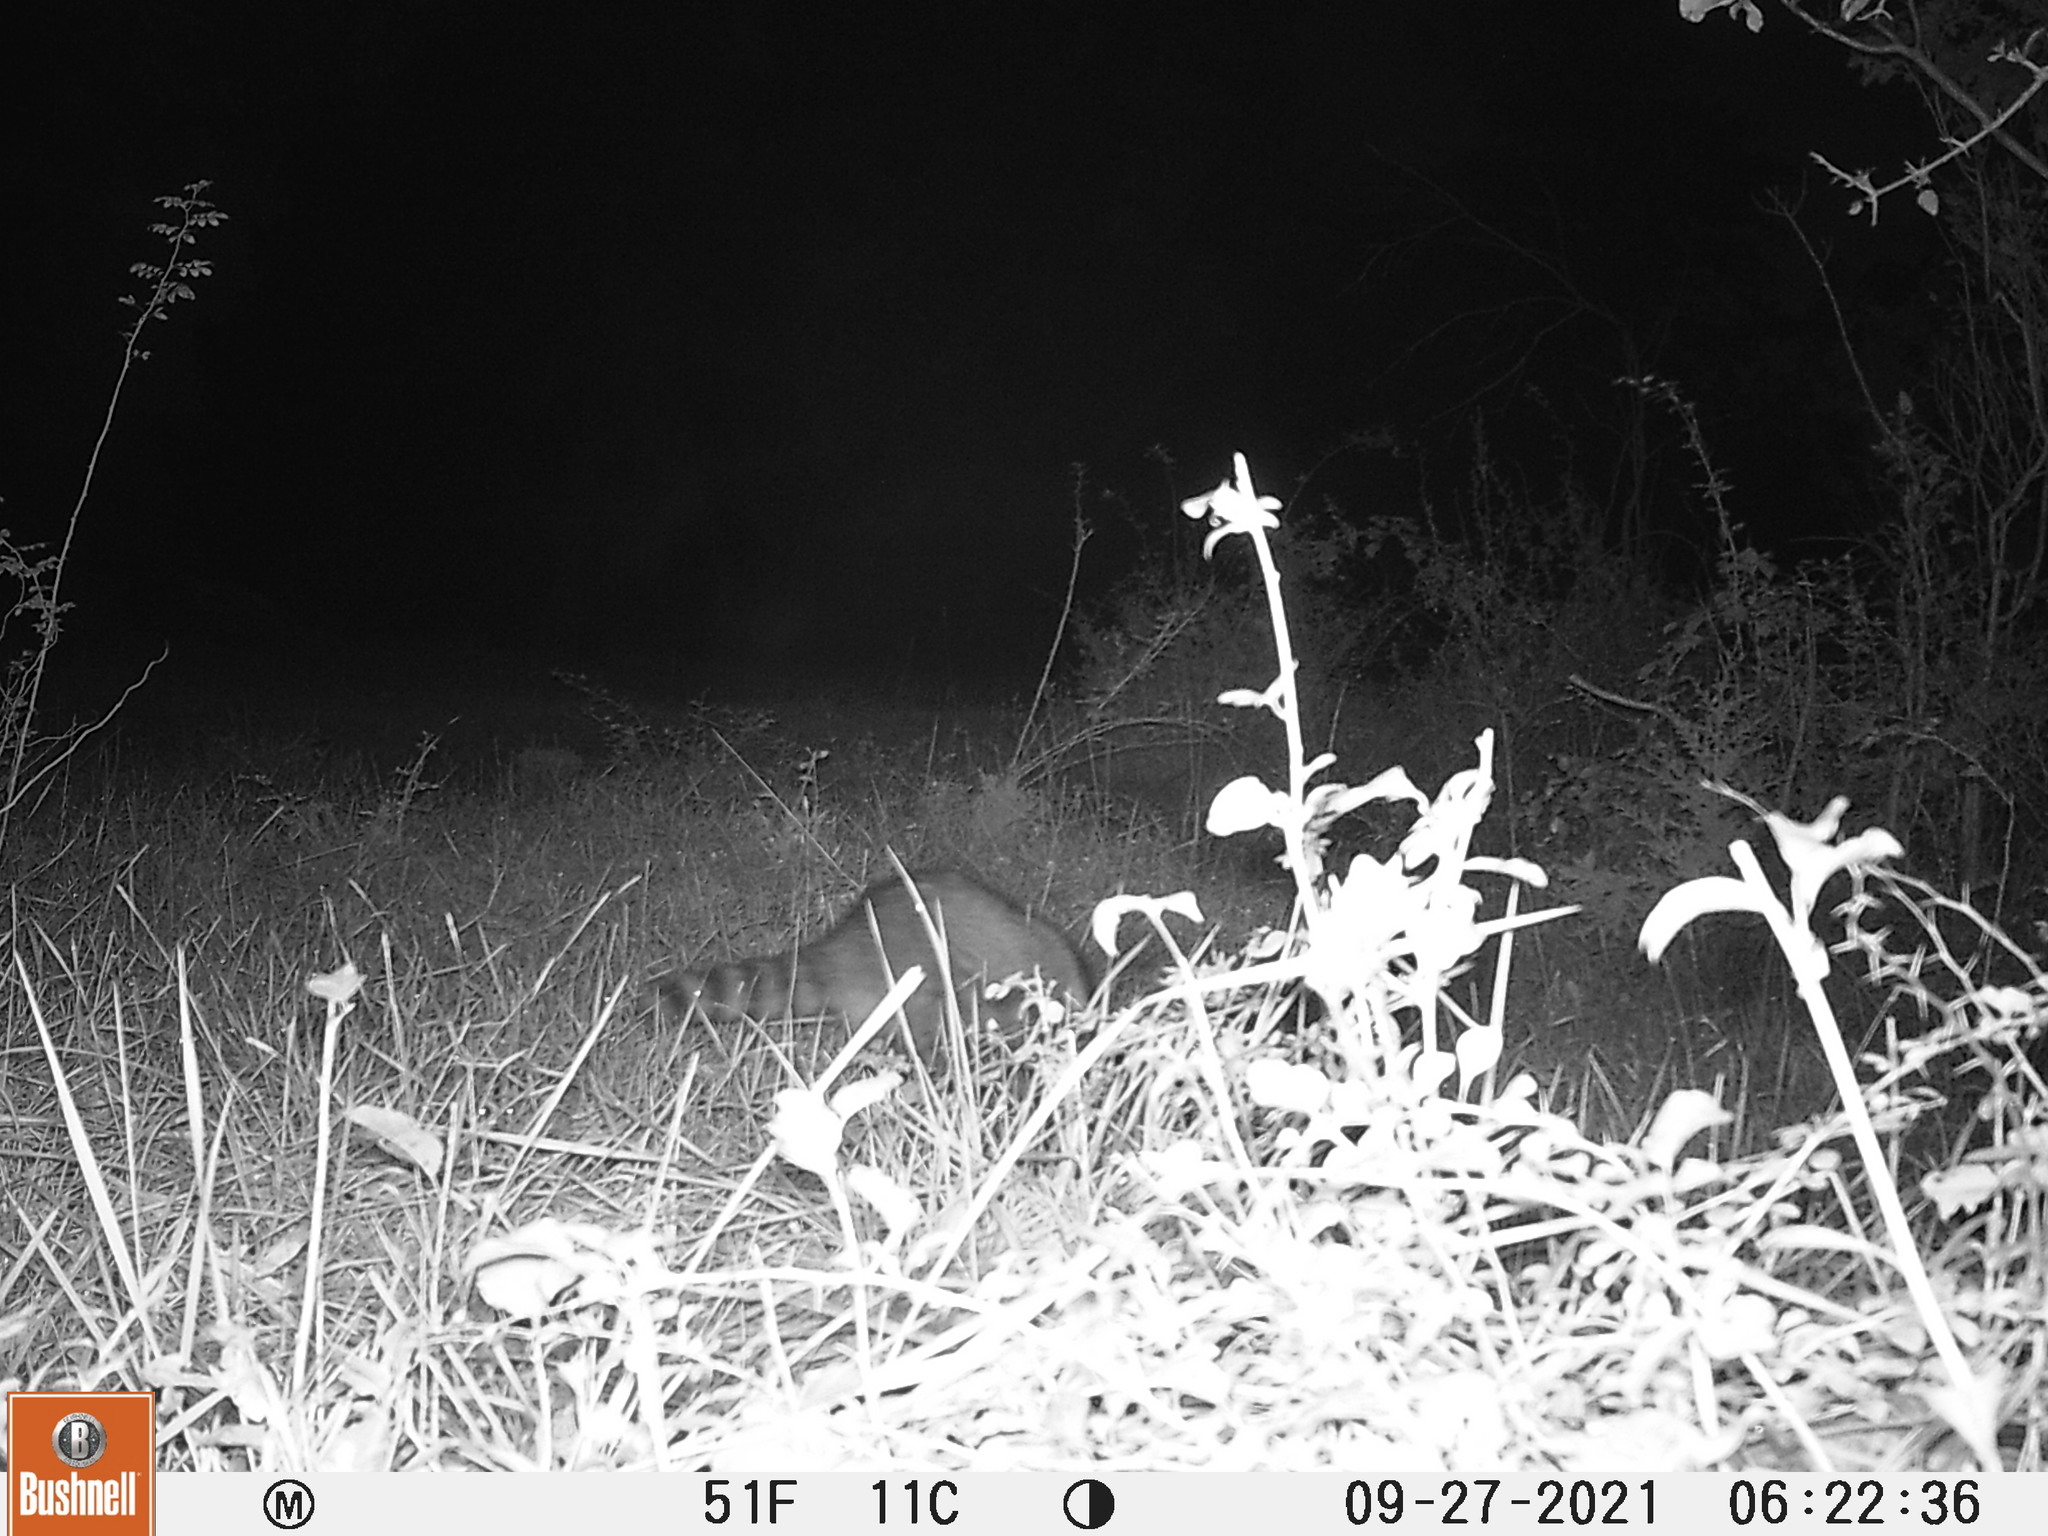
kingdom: Animalia
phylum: Chordata
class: Mammalia
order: Carnivora
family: Procyonidae
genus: Procyon
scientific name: Procyon lotor
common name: Raccoon
